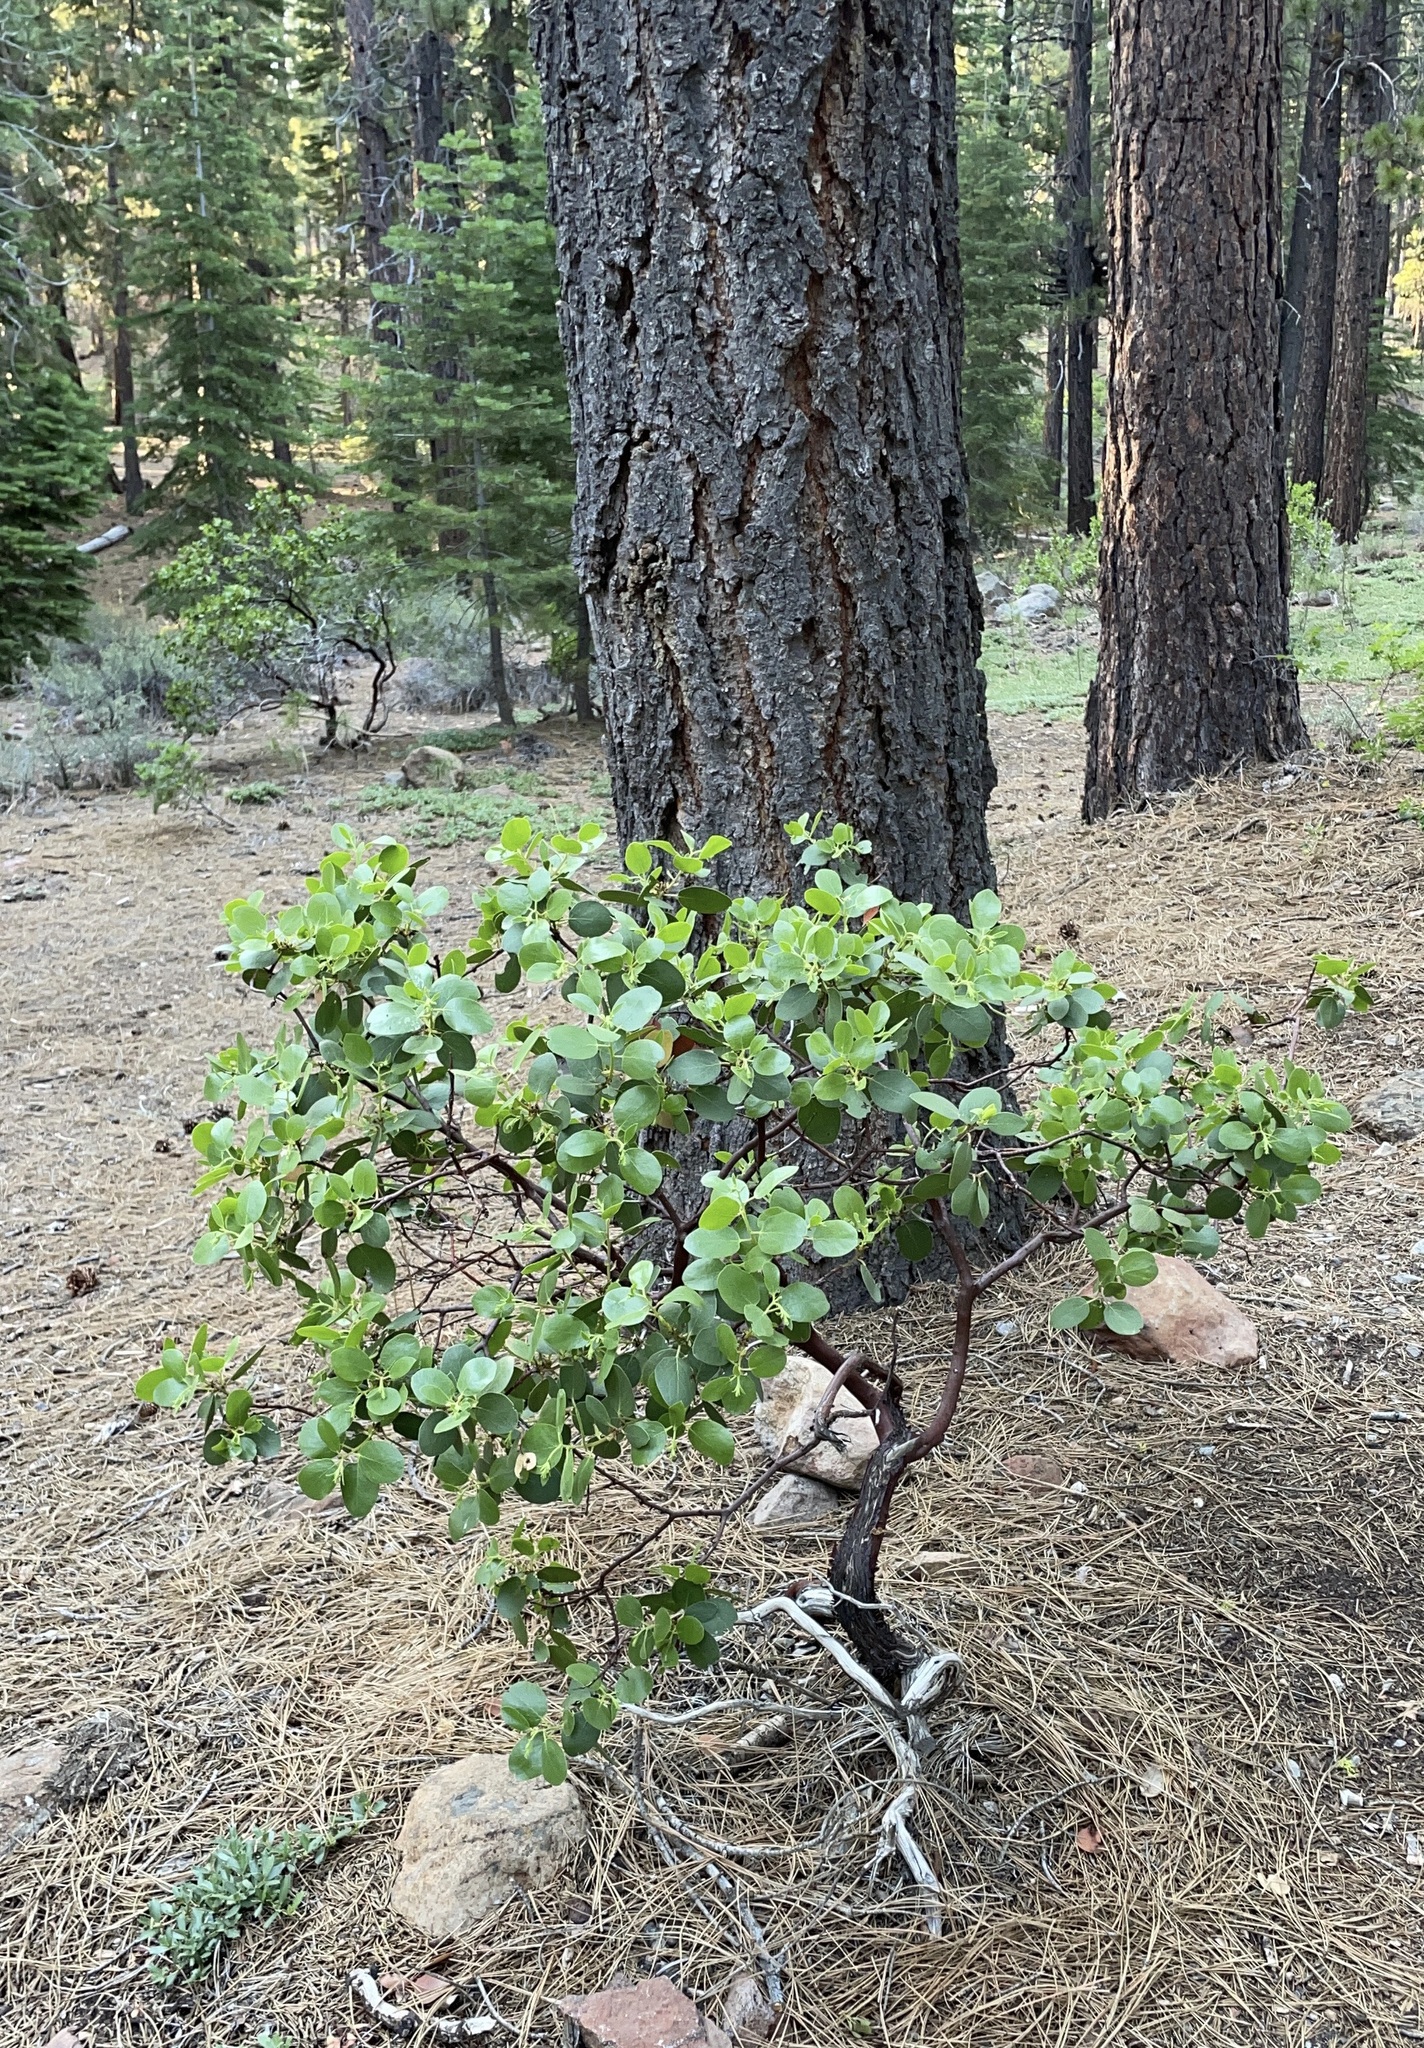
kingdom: Plantae
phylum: Tracheophyta
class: Magnoliopsida
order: Ericales
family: Ericaceae
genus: Arctostaphylos
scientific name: Arctostaphylos patula
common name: Green-leaf manzanita
